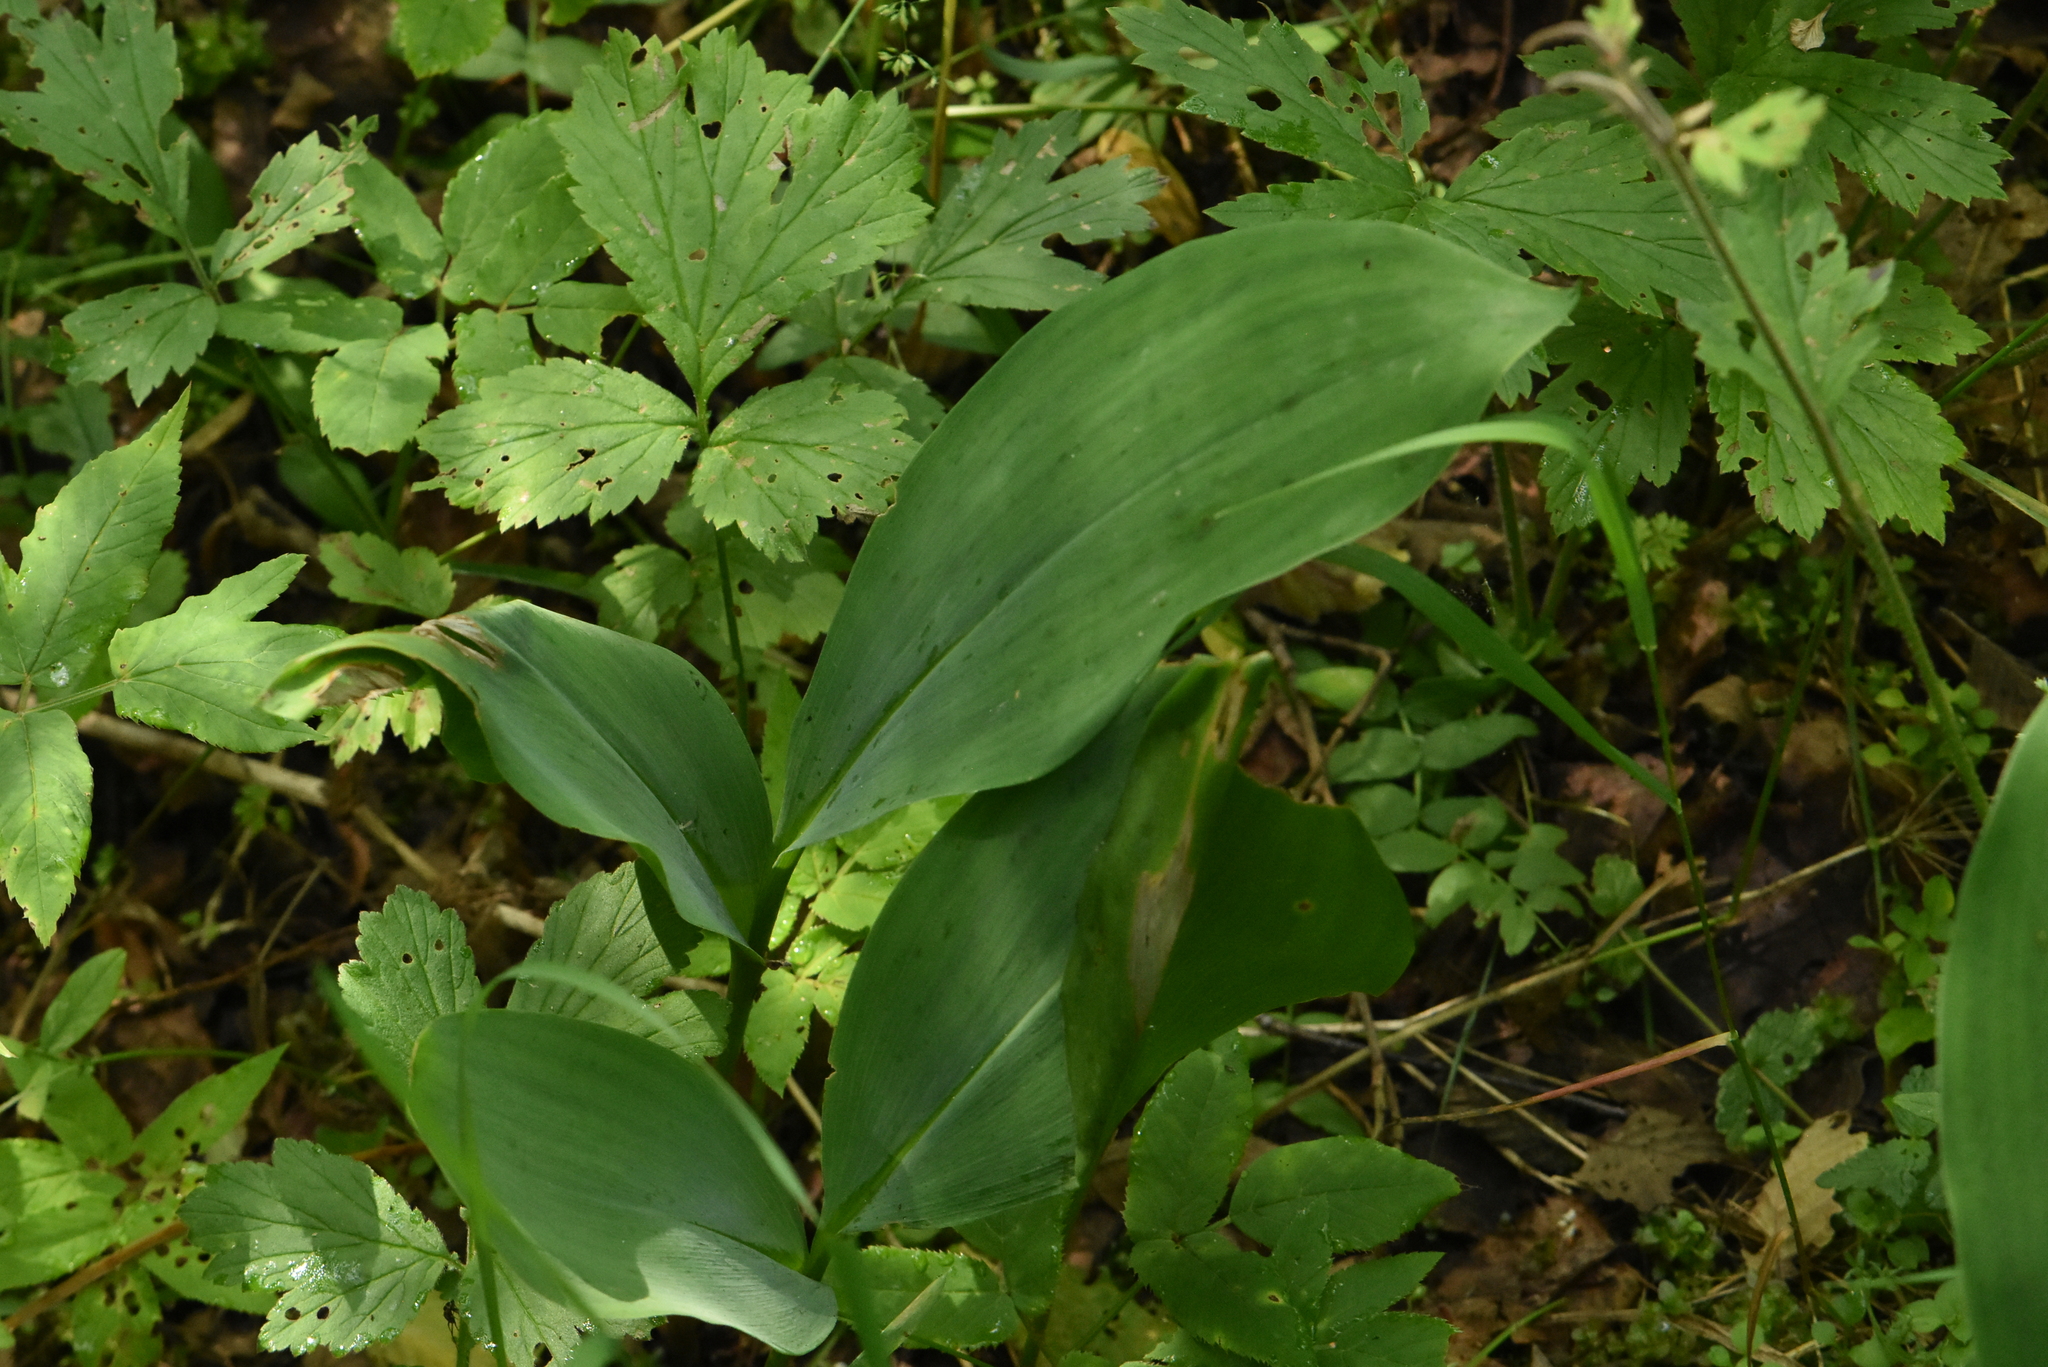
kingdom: Plantae
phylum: Tracheophyta
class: Liliopsida
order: Asparagales
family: Asparagaceae
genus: Convallaria
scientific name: Convallaria majalis
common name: Lily-of-the-valley
